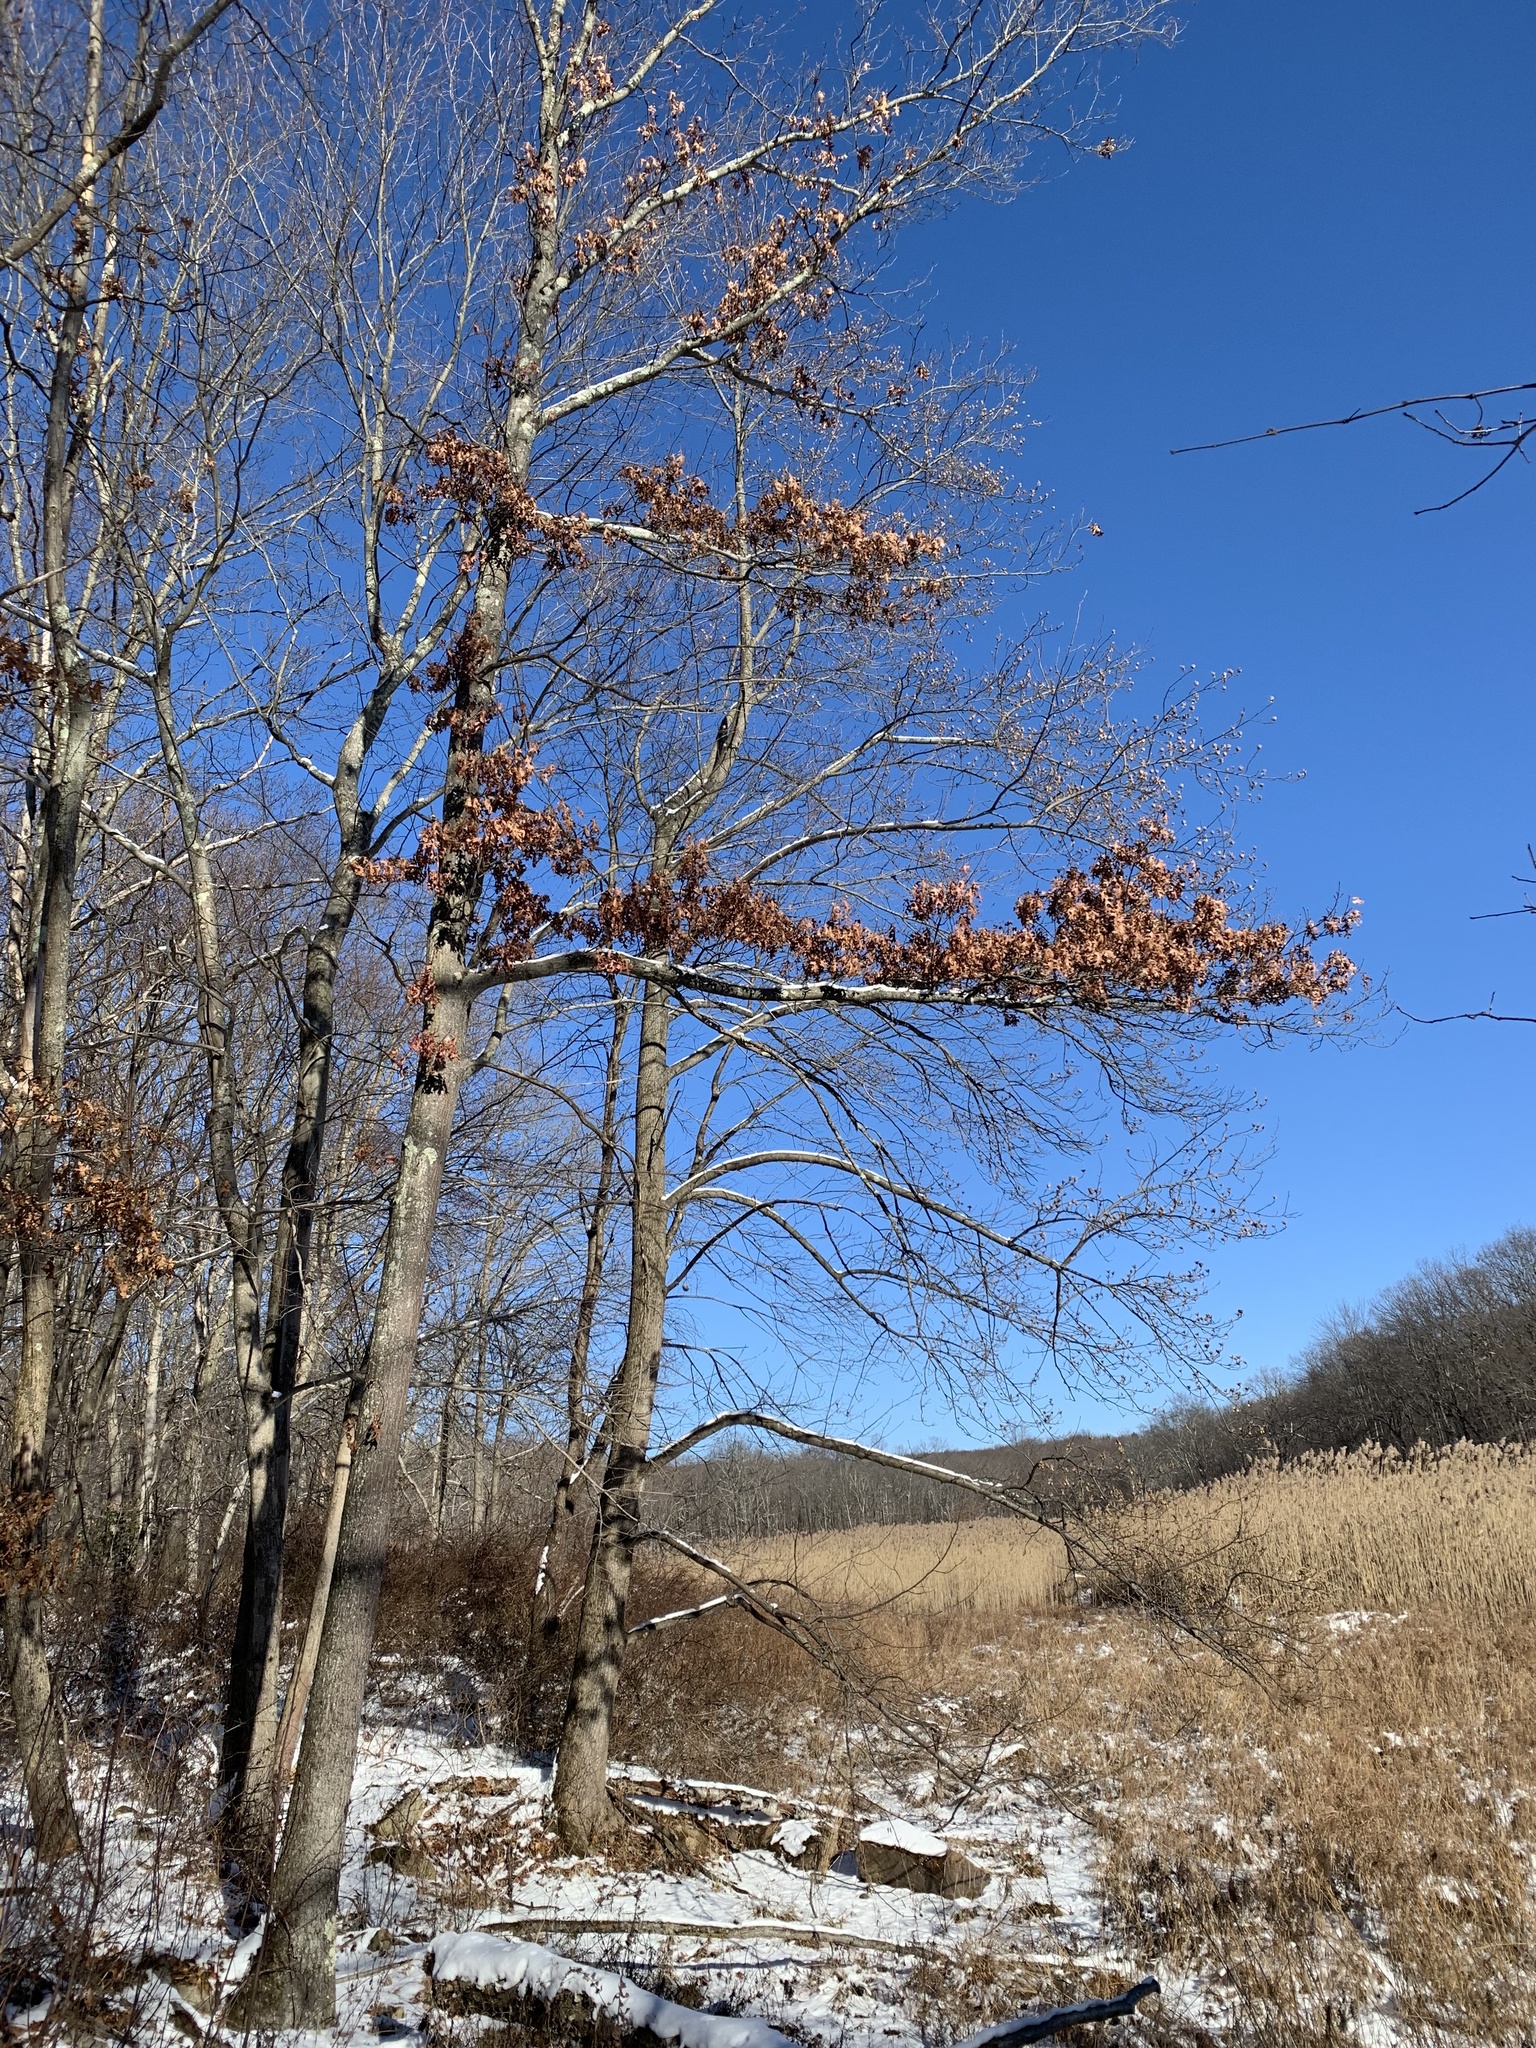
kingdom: Plantae
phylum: Tracheophyta
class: Magnoliopsida
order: Fagales
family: Fagaceae
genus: Quercus
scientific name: Quercus coccinea
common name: Scarlet oak
